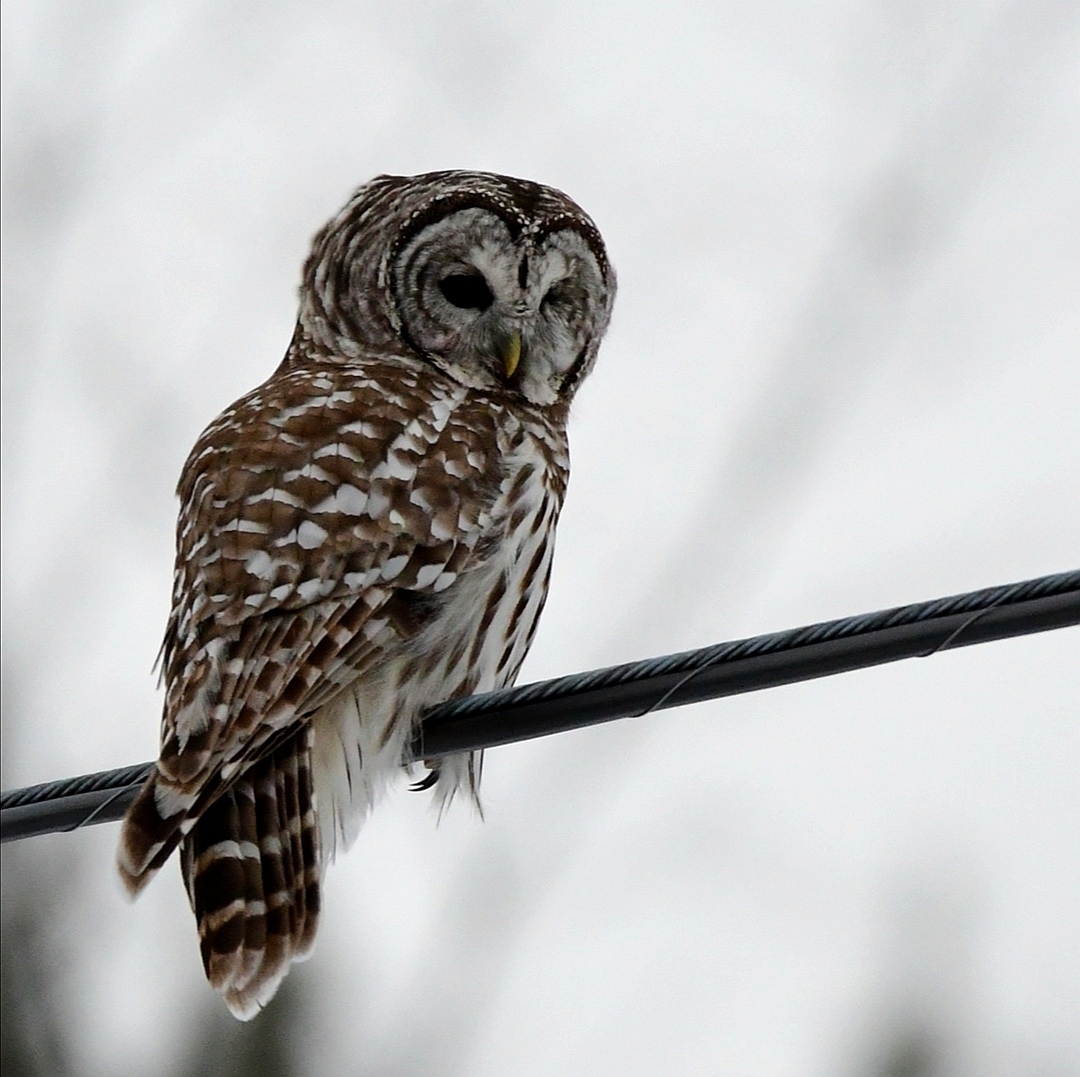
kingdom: Animalia
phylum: Chordata
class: Aves
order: Strigiformes
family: Strigidae
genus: Strix
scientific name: Strix varia
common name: Barred owl
